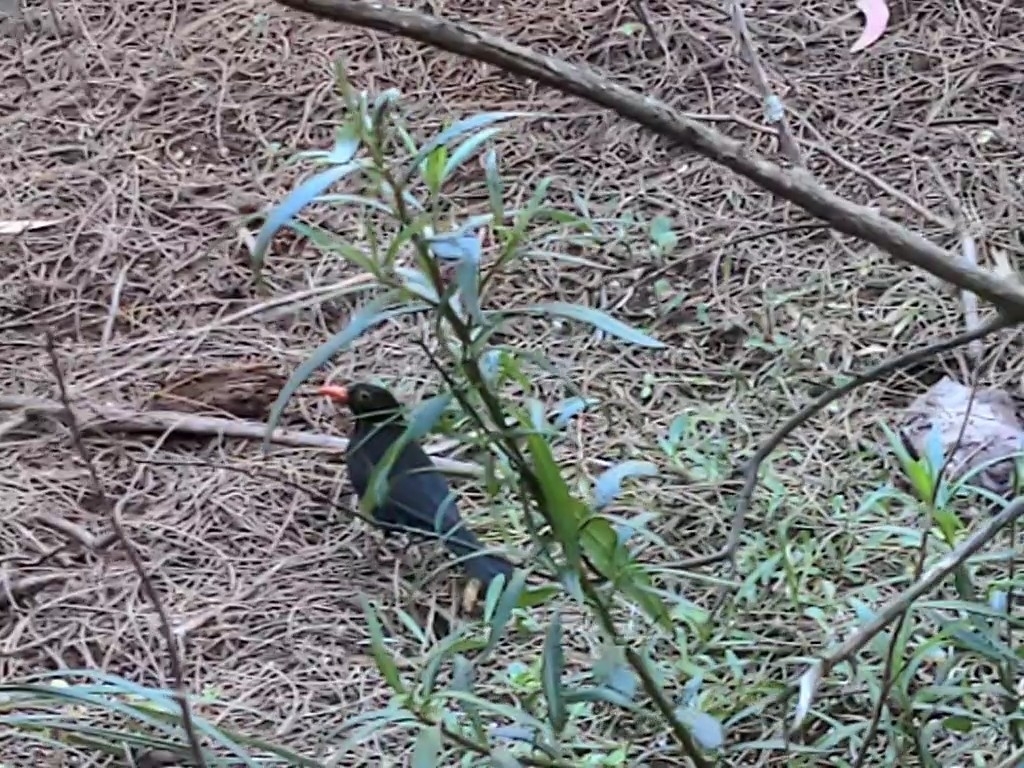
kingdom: Animalia
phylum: Chordata
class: Aves
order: Passeriformes
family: Turdidae
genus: Turdus
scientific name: Turdus merula
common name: Common blackbird
